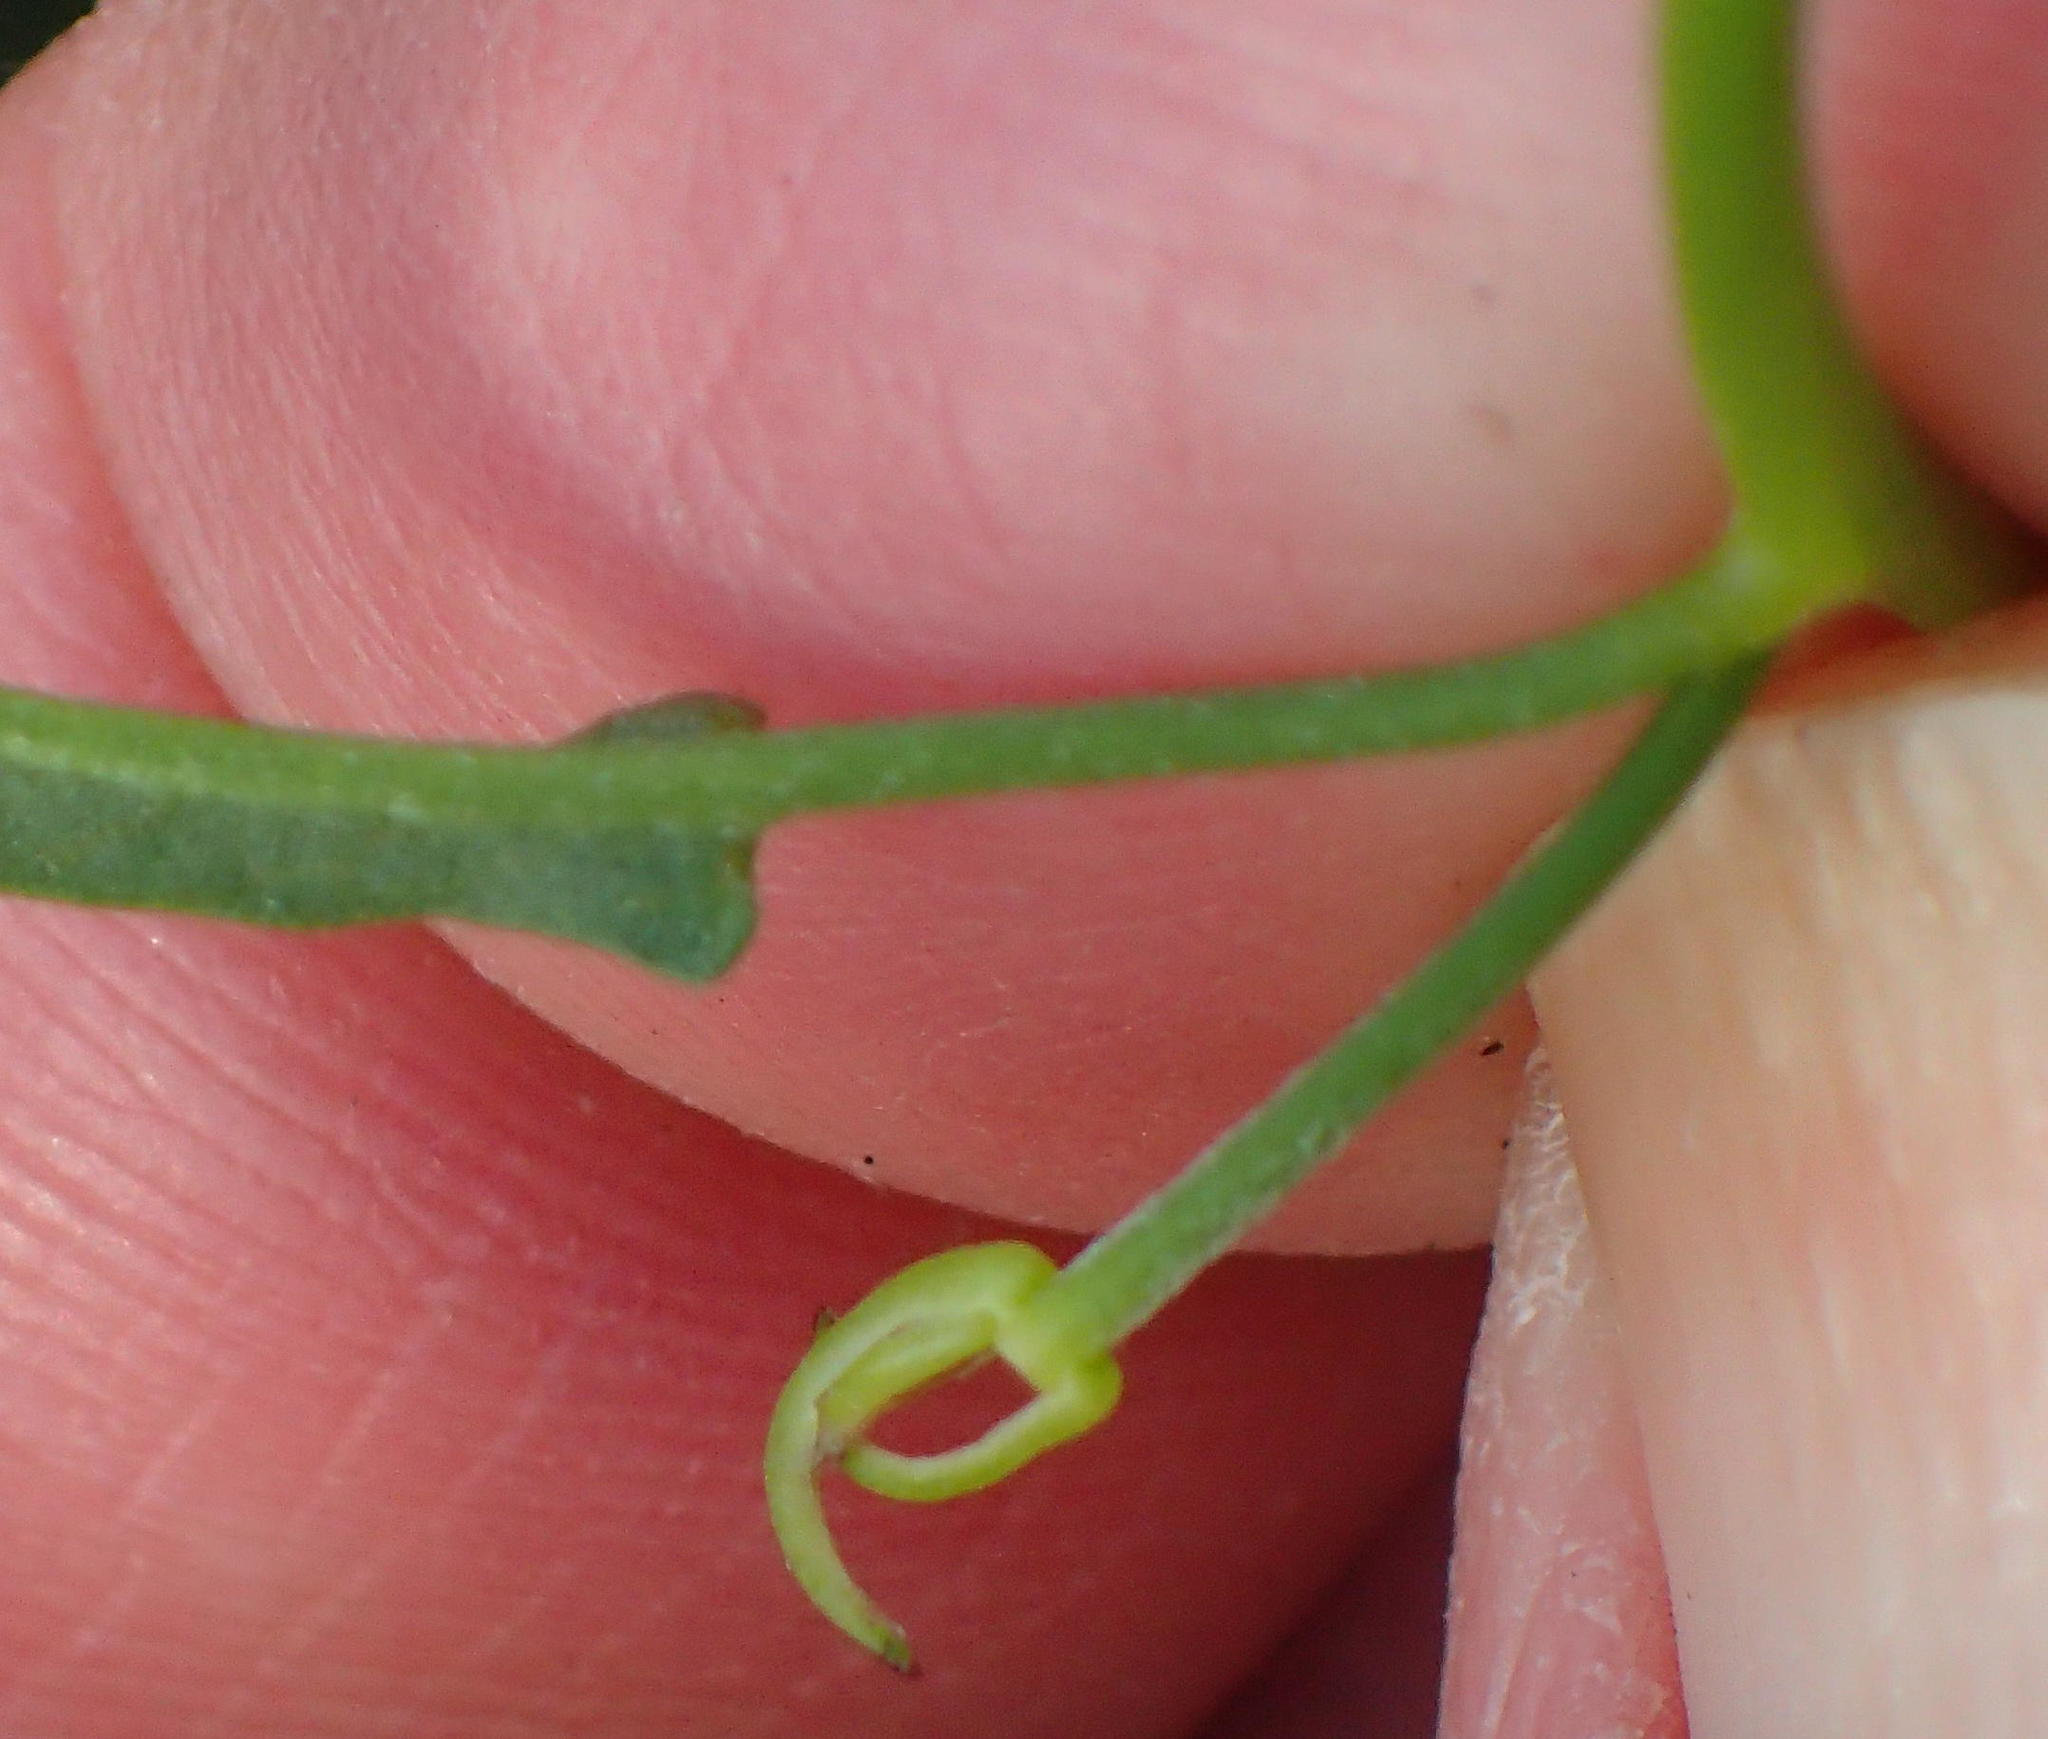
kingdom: Plantae
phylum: Tracheophyta
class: Magnoliopsida
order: Solanales
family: Convolvulaceae
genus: Convolvulus
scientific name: Convolvulus sagittatus
